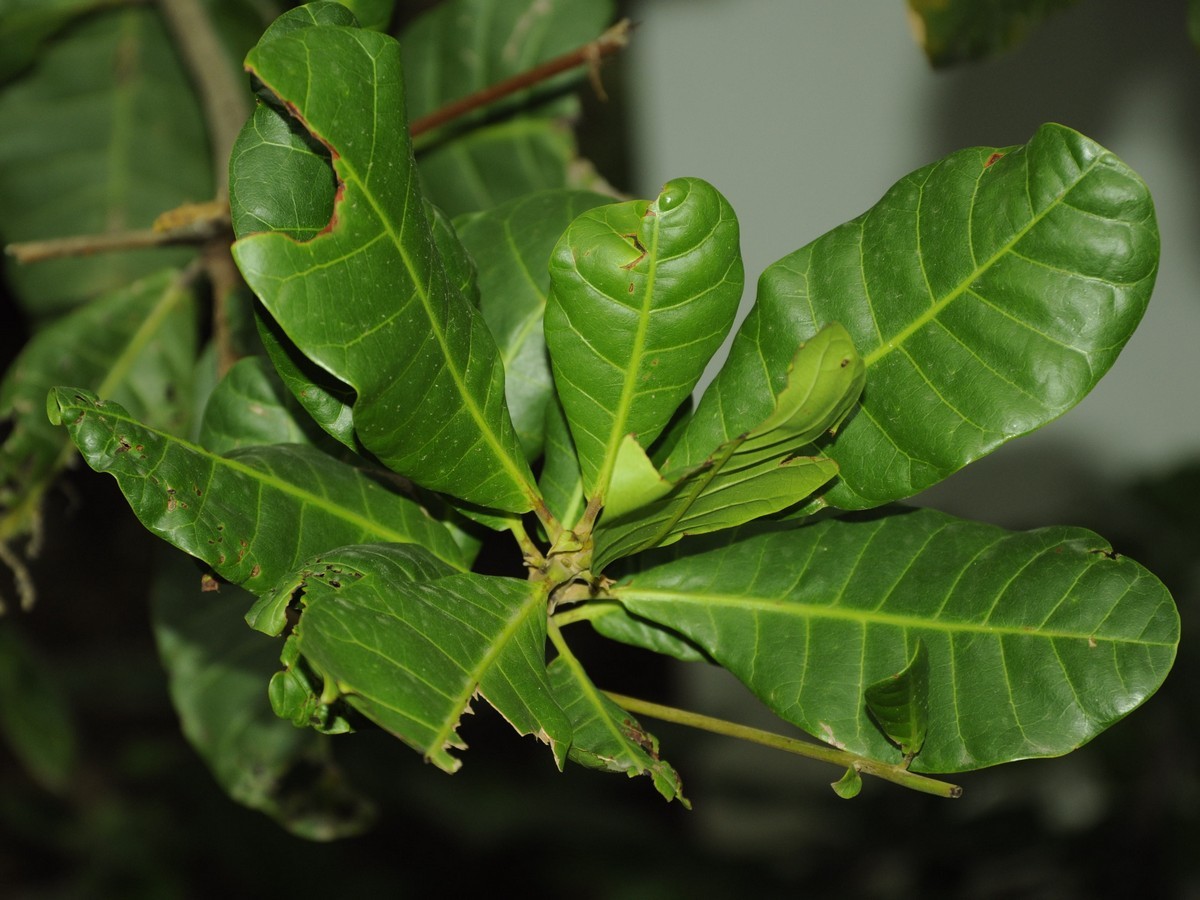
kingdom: Plantae
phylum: Tracheophyta
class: Magnoliopsida
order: Sapindales
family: Anacardiaceae
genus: Anacardium
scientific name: Anacardium occidentale
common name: Cashew
